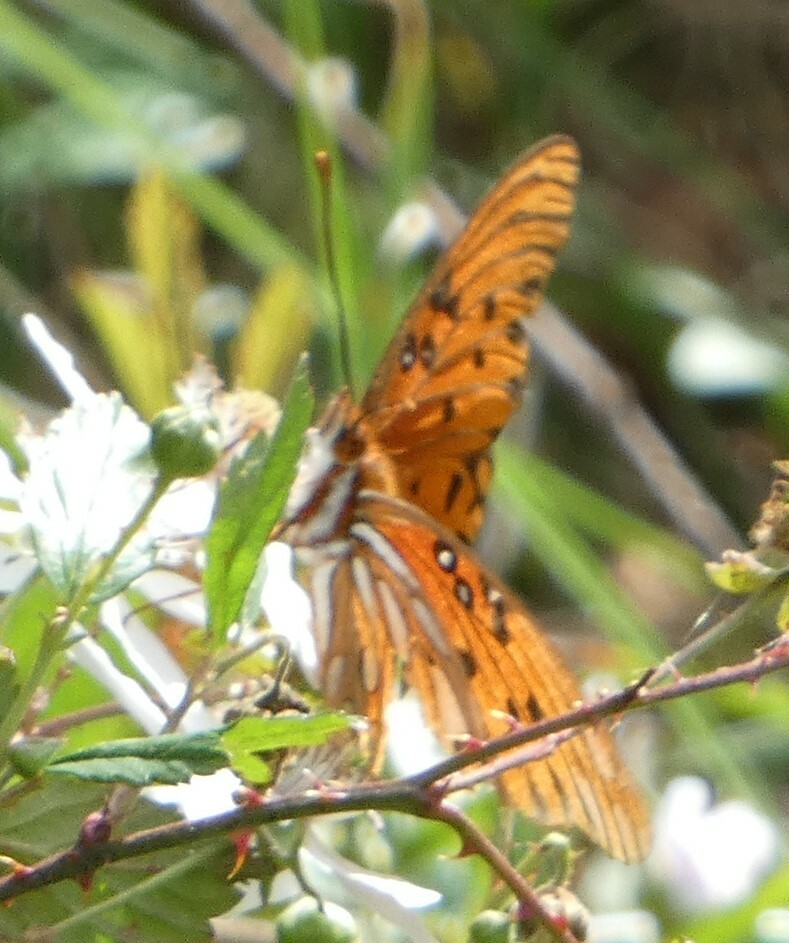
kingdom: Animalia
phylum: Arthropoda
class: Insecta
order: Lepidoptera
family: Nymphalidae
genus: Dione
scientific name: Dione vanillae
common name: Gulf fritillary
